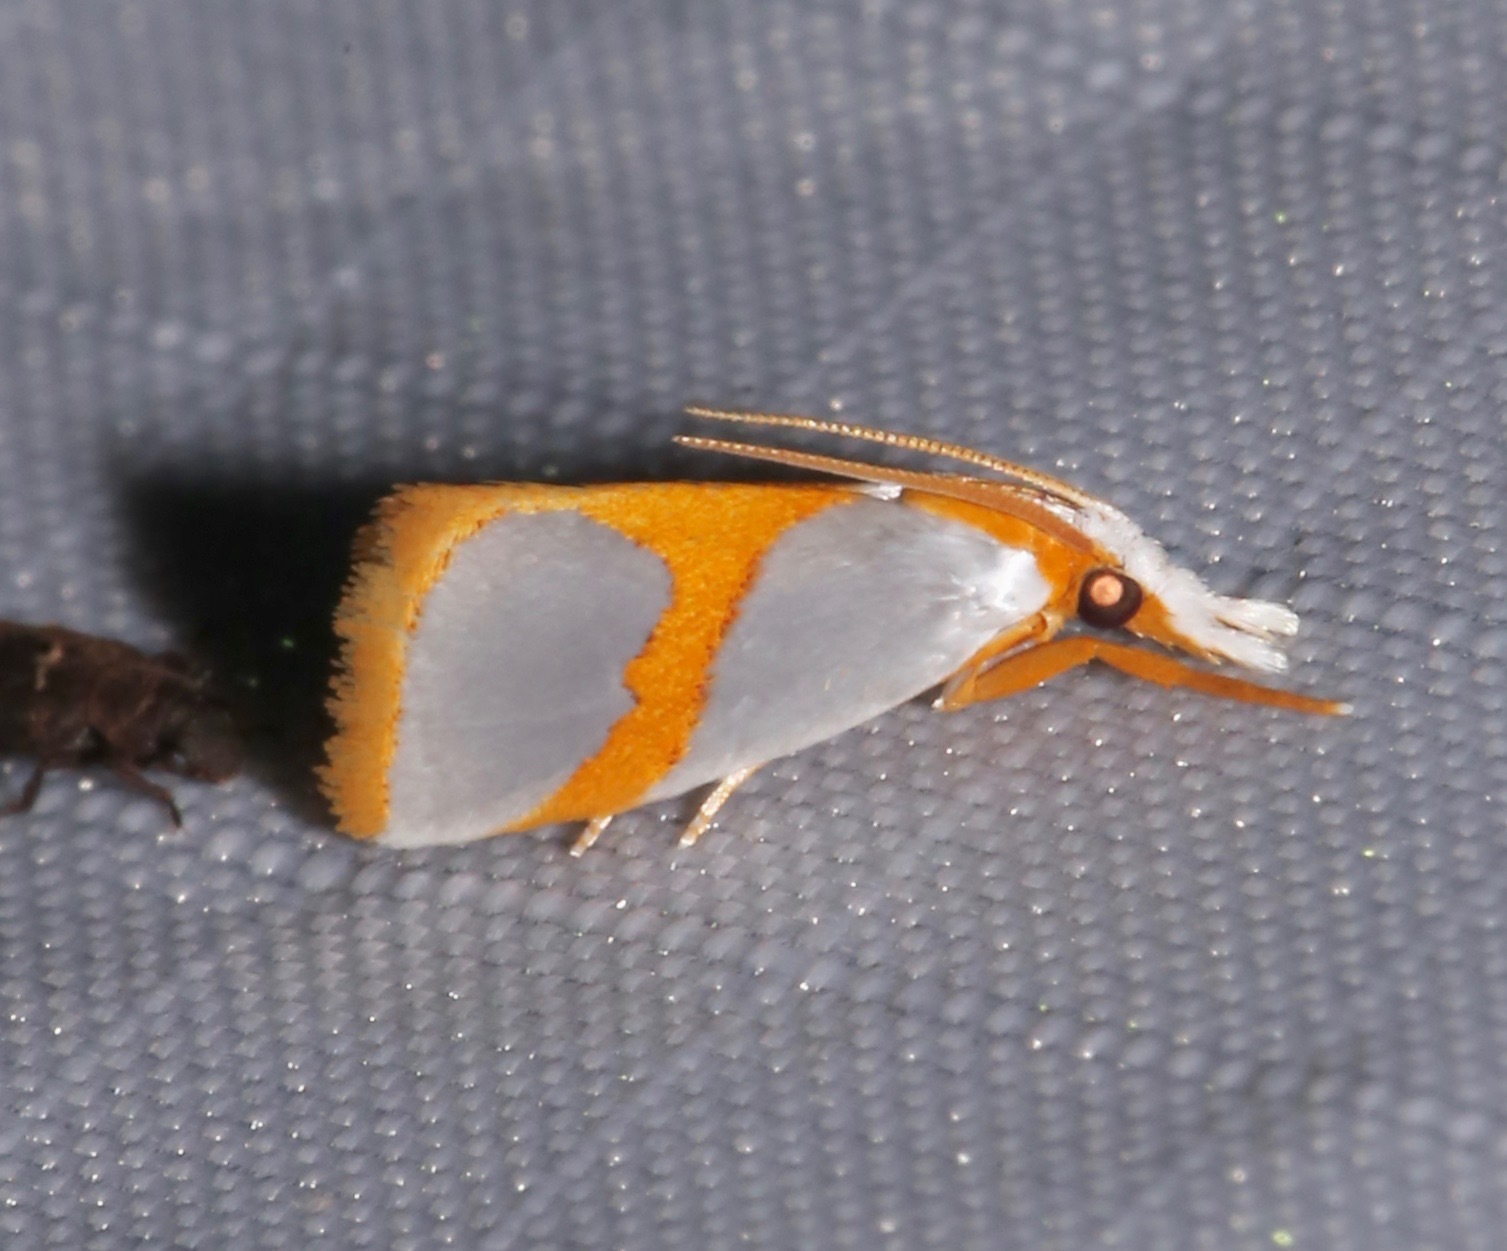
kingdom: Animalia
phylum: Arthropoda
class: Insecta
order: Lepidoptera
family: Crambidae
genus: Argyria
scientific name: Argyria auratella
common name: Curve-lined argyria moth
